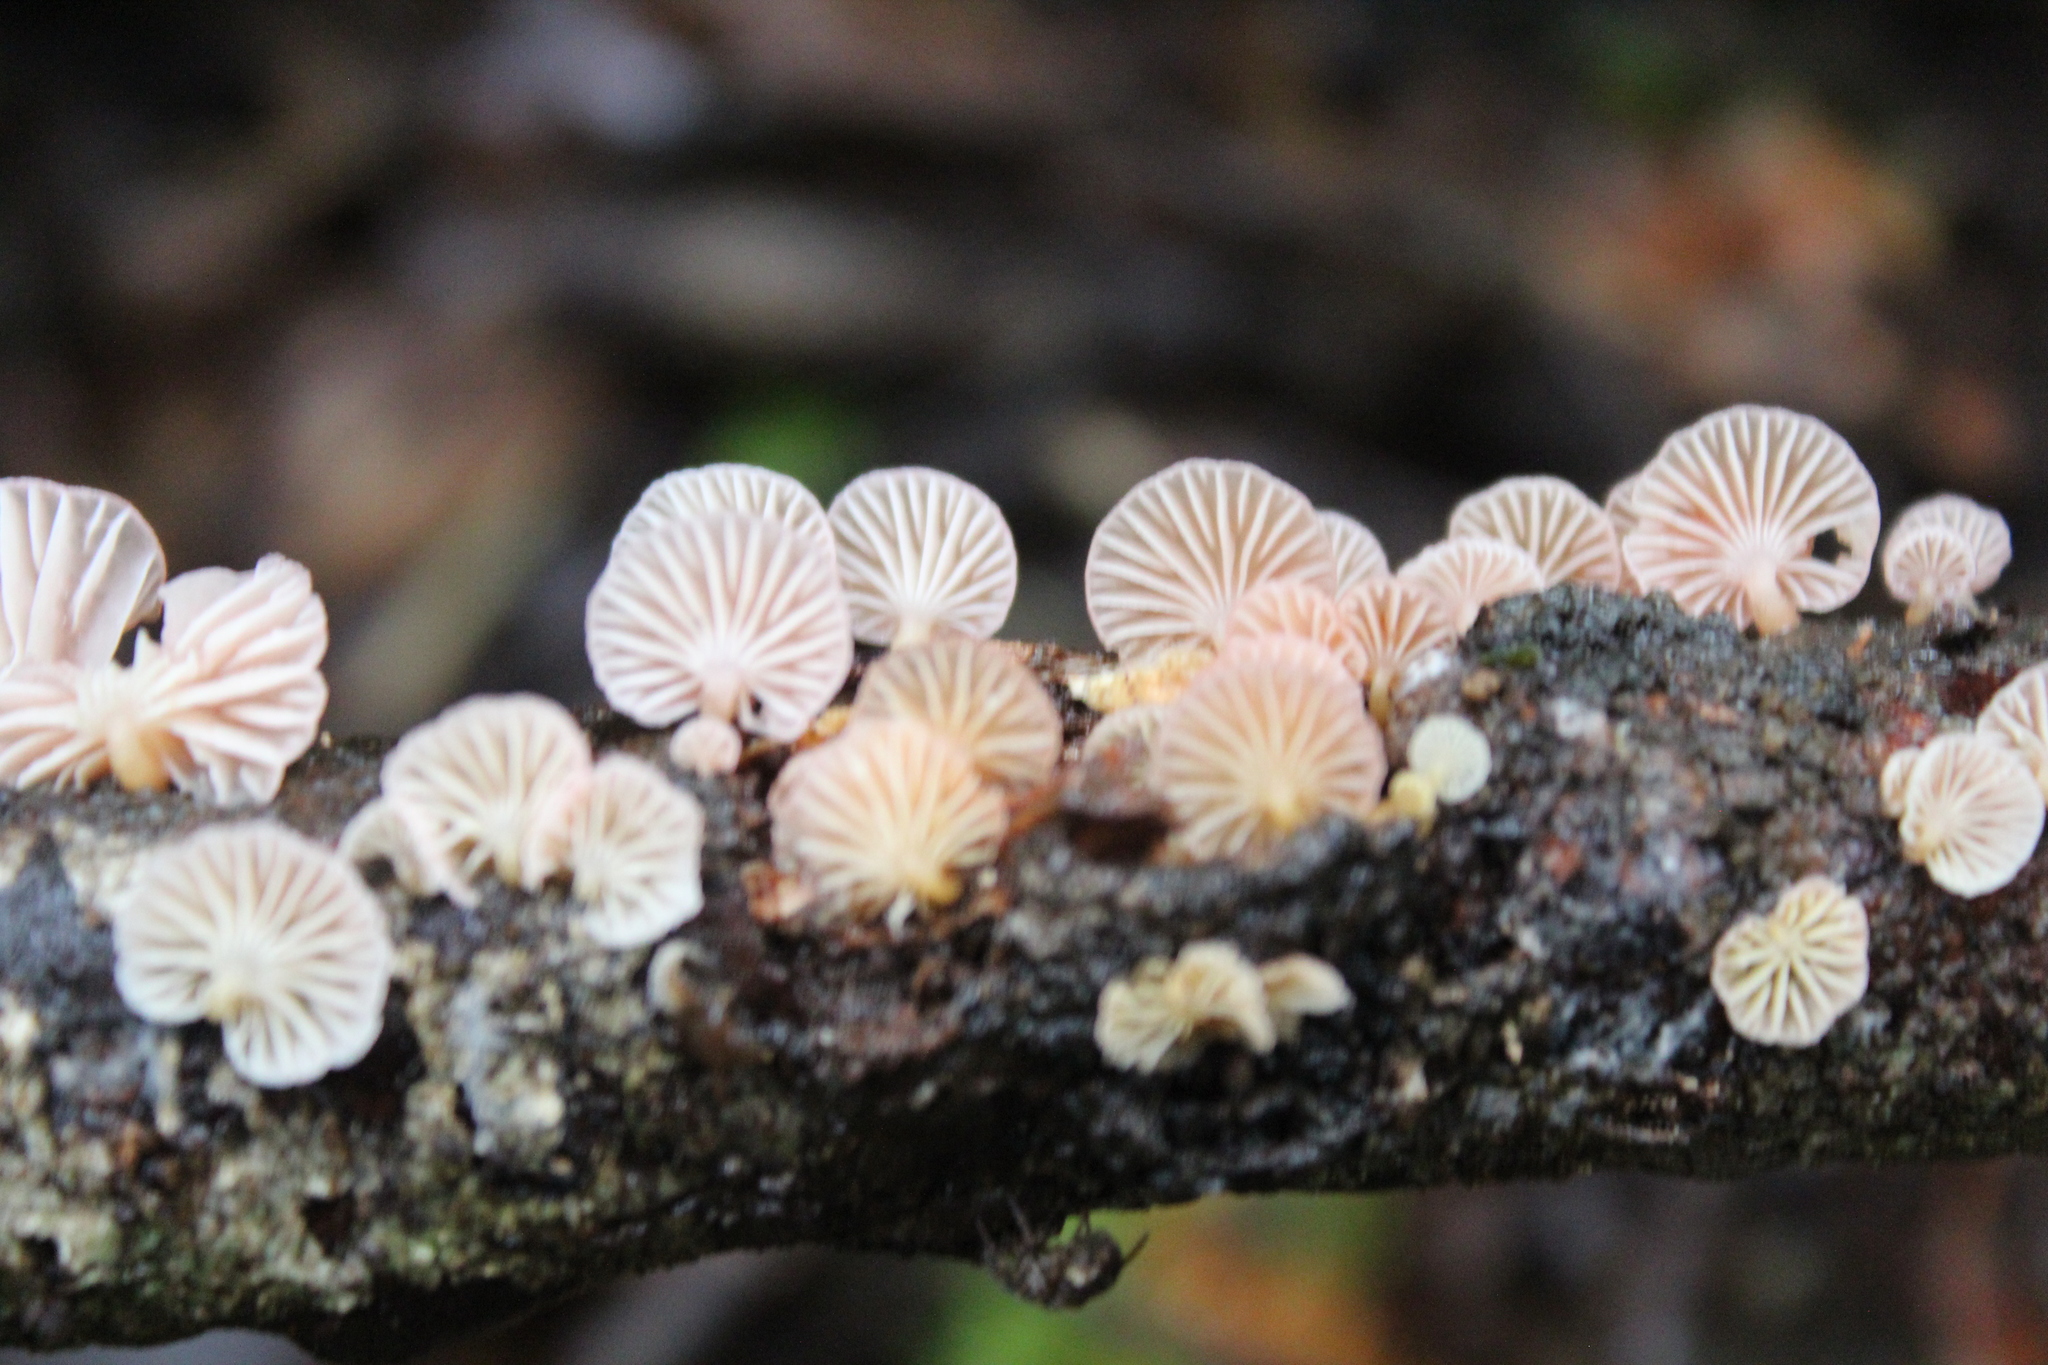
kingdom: Fungi
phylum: Basidiomycota
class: Agaricomycetes
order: Agaricales
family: Mycenaceae
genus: Mycena
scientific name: Mycena roseoflava
